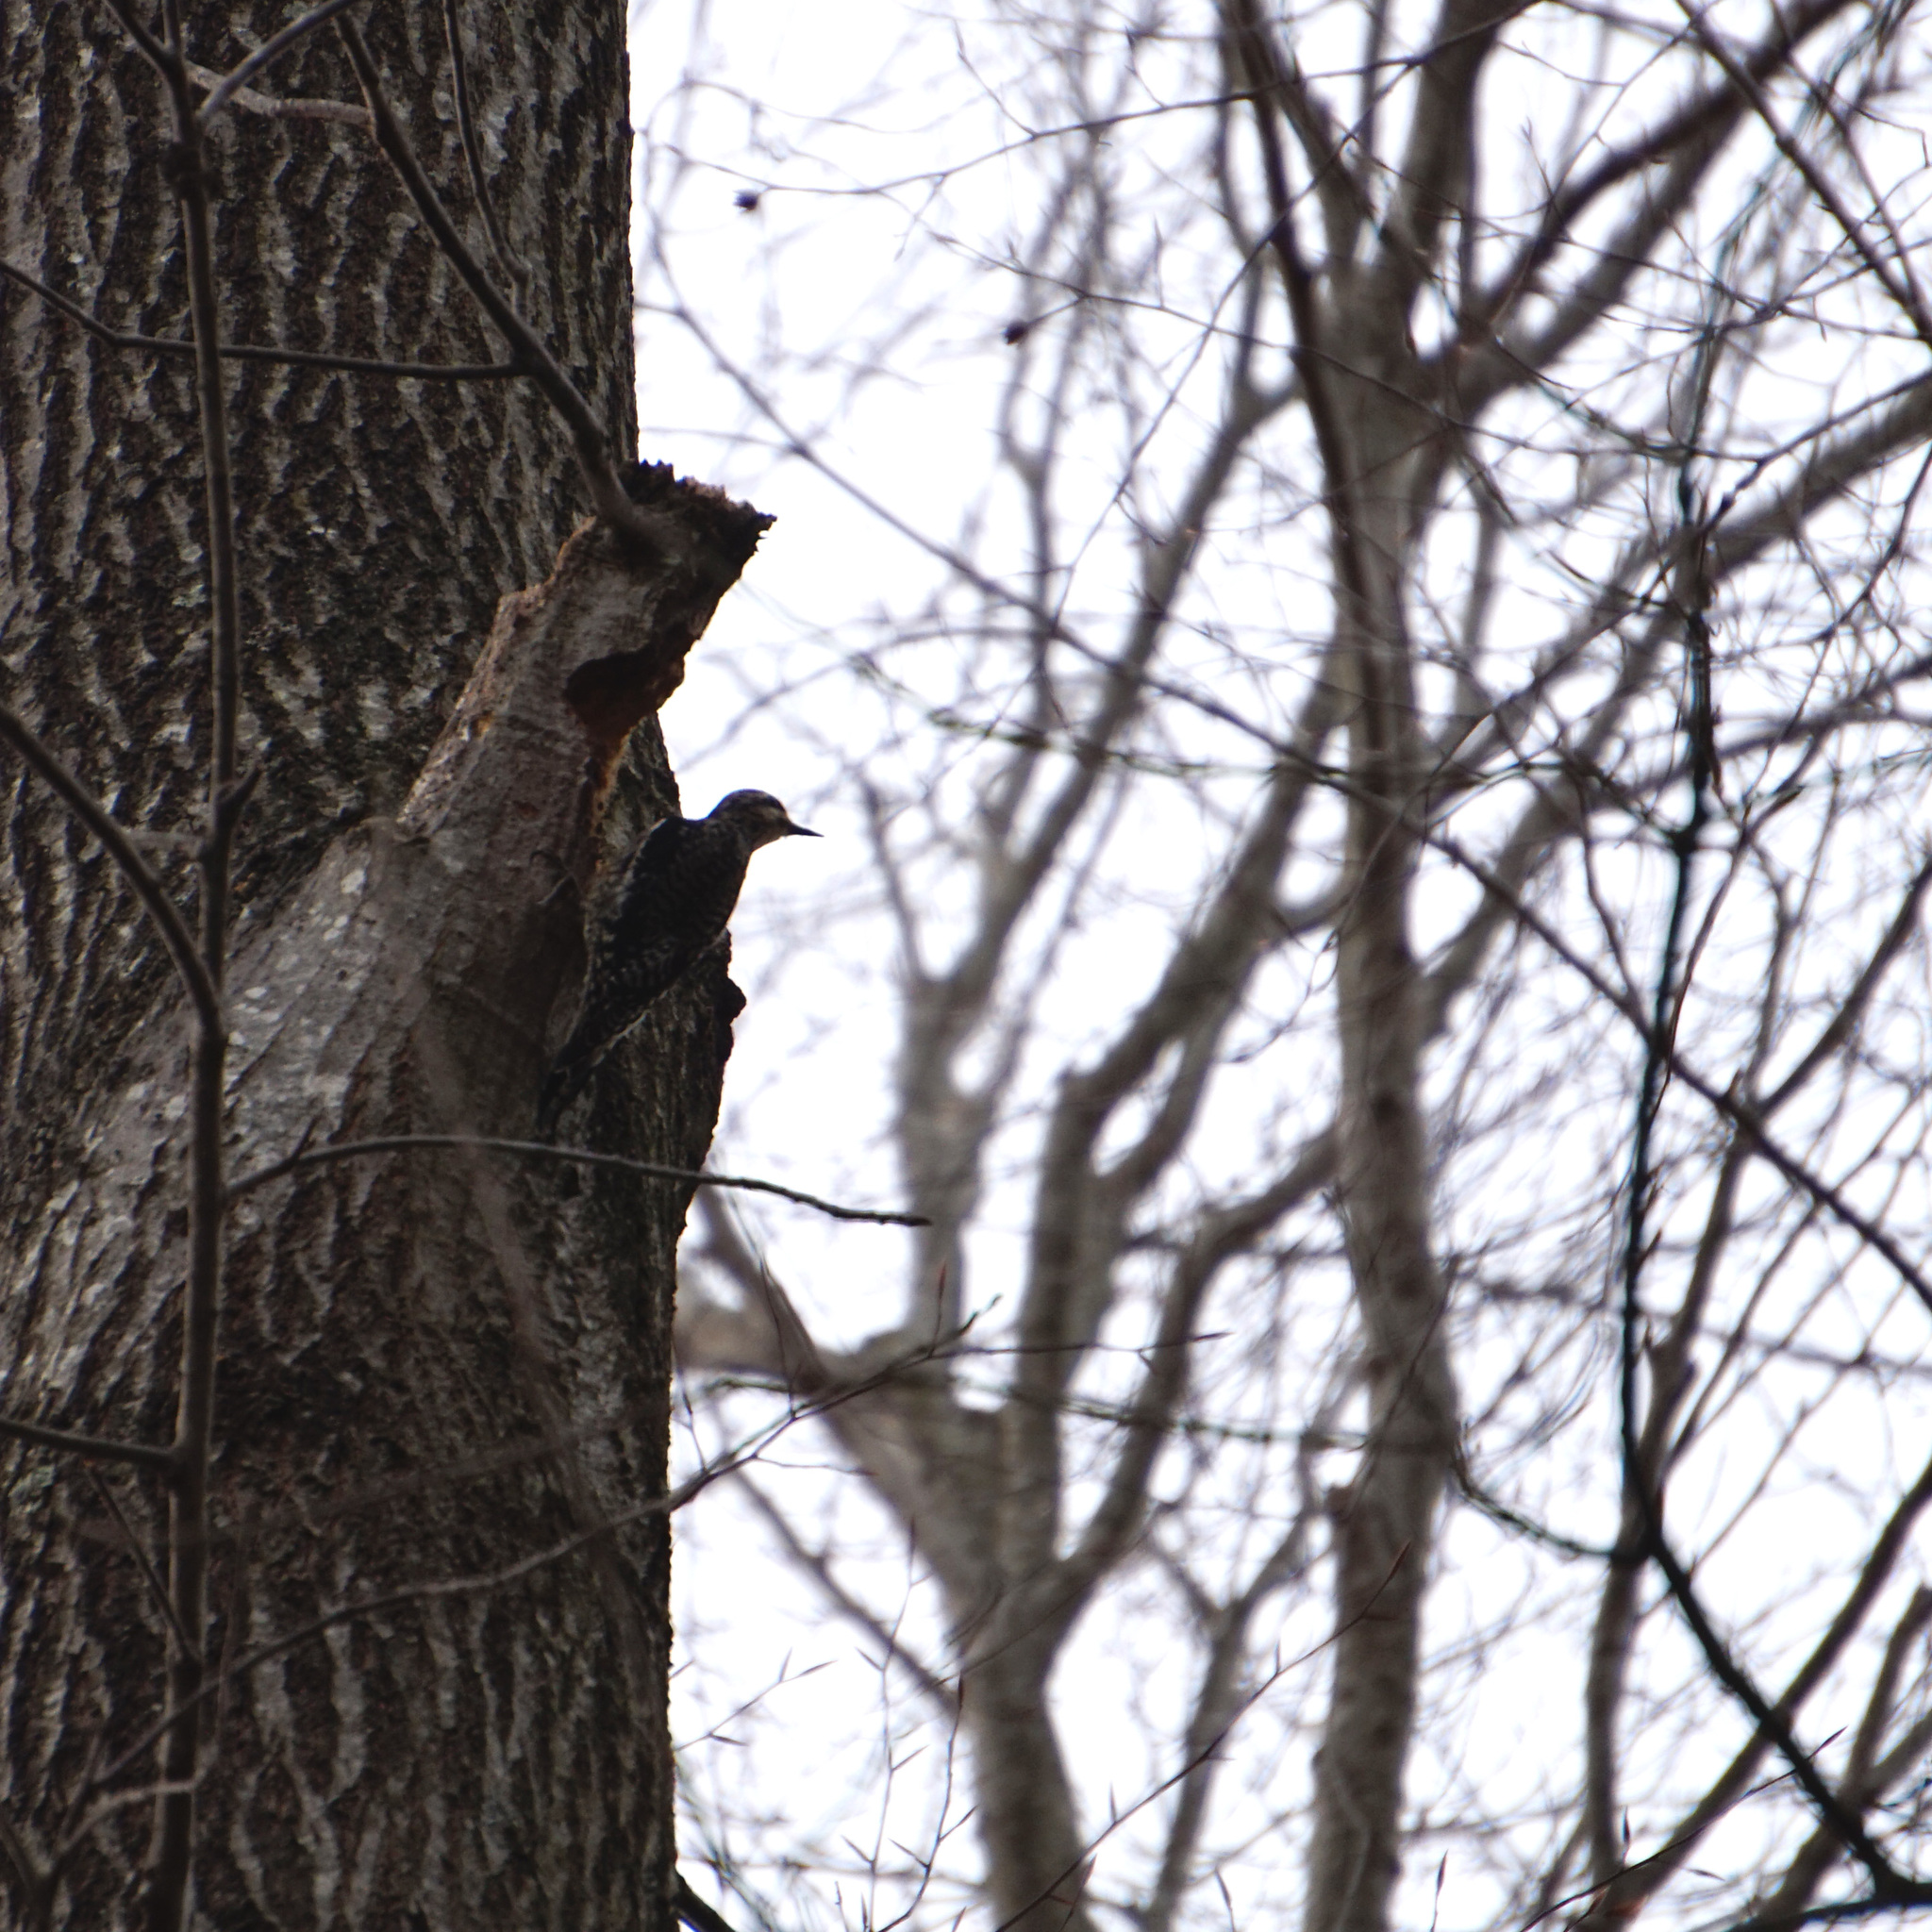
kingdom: Animalia
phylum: Chordata
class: Aves
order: Piciformes
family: Picidae
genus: Sphyrapicus
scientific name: Sphyrapicus varius
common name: Yellow-bellied sapsucker
